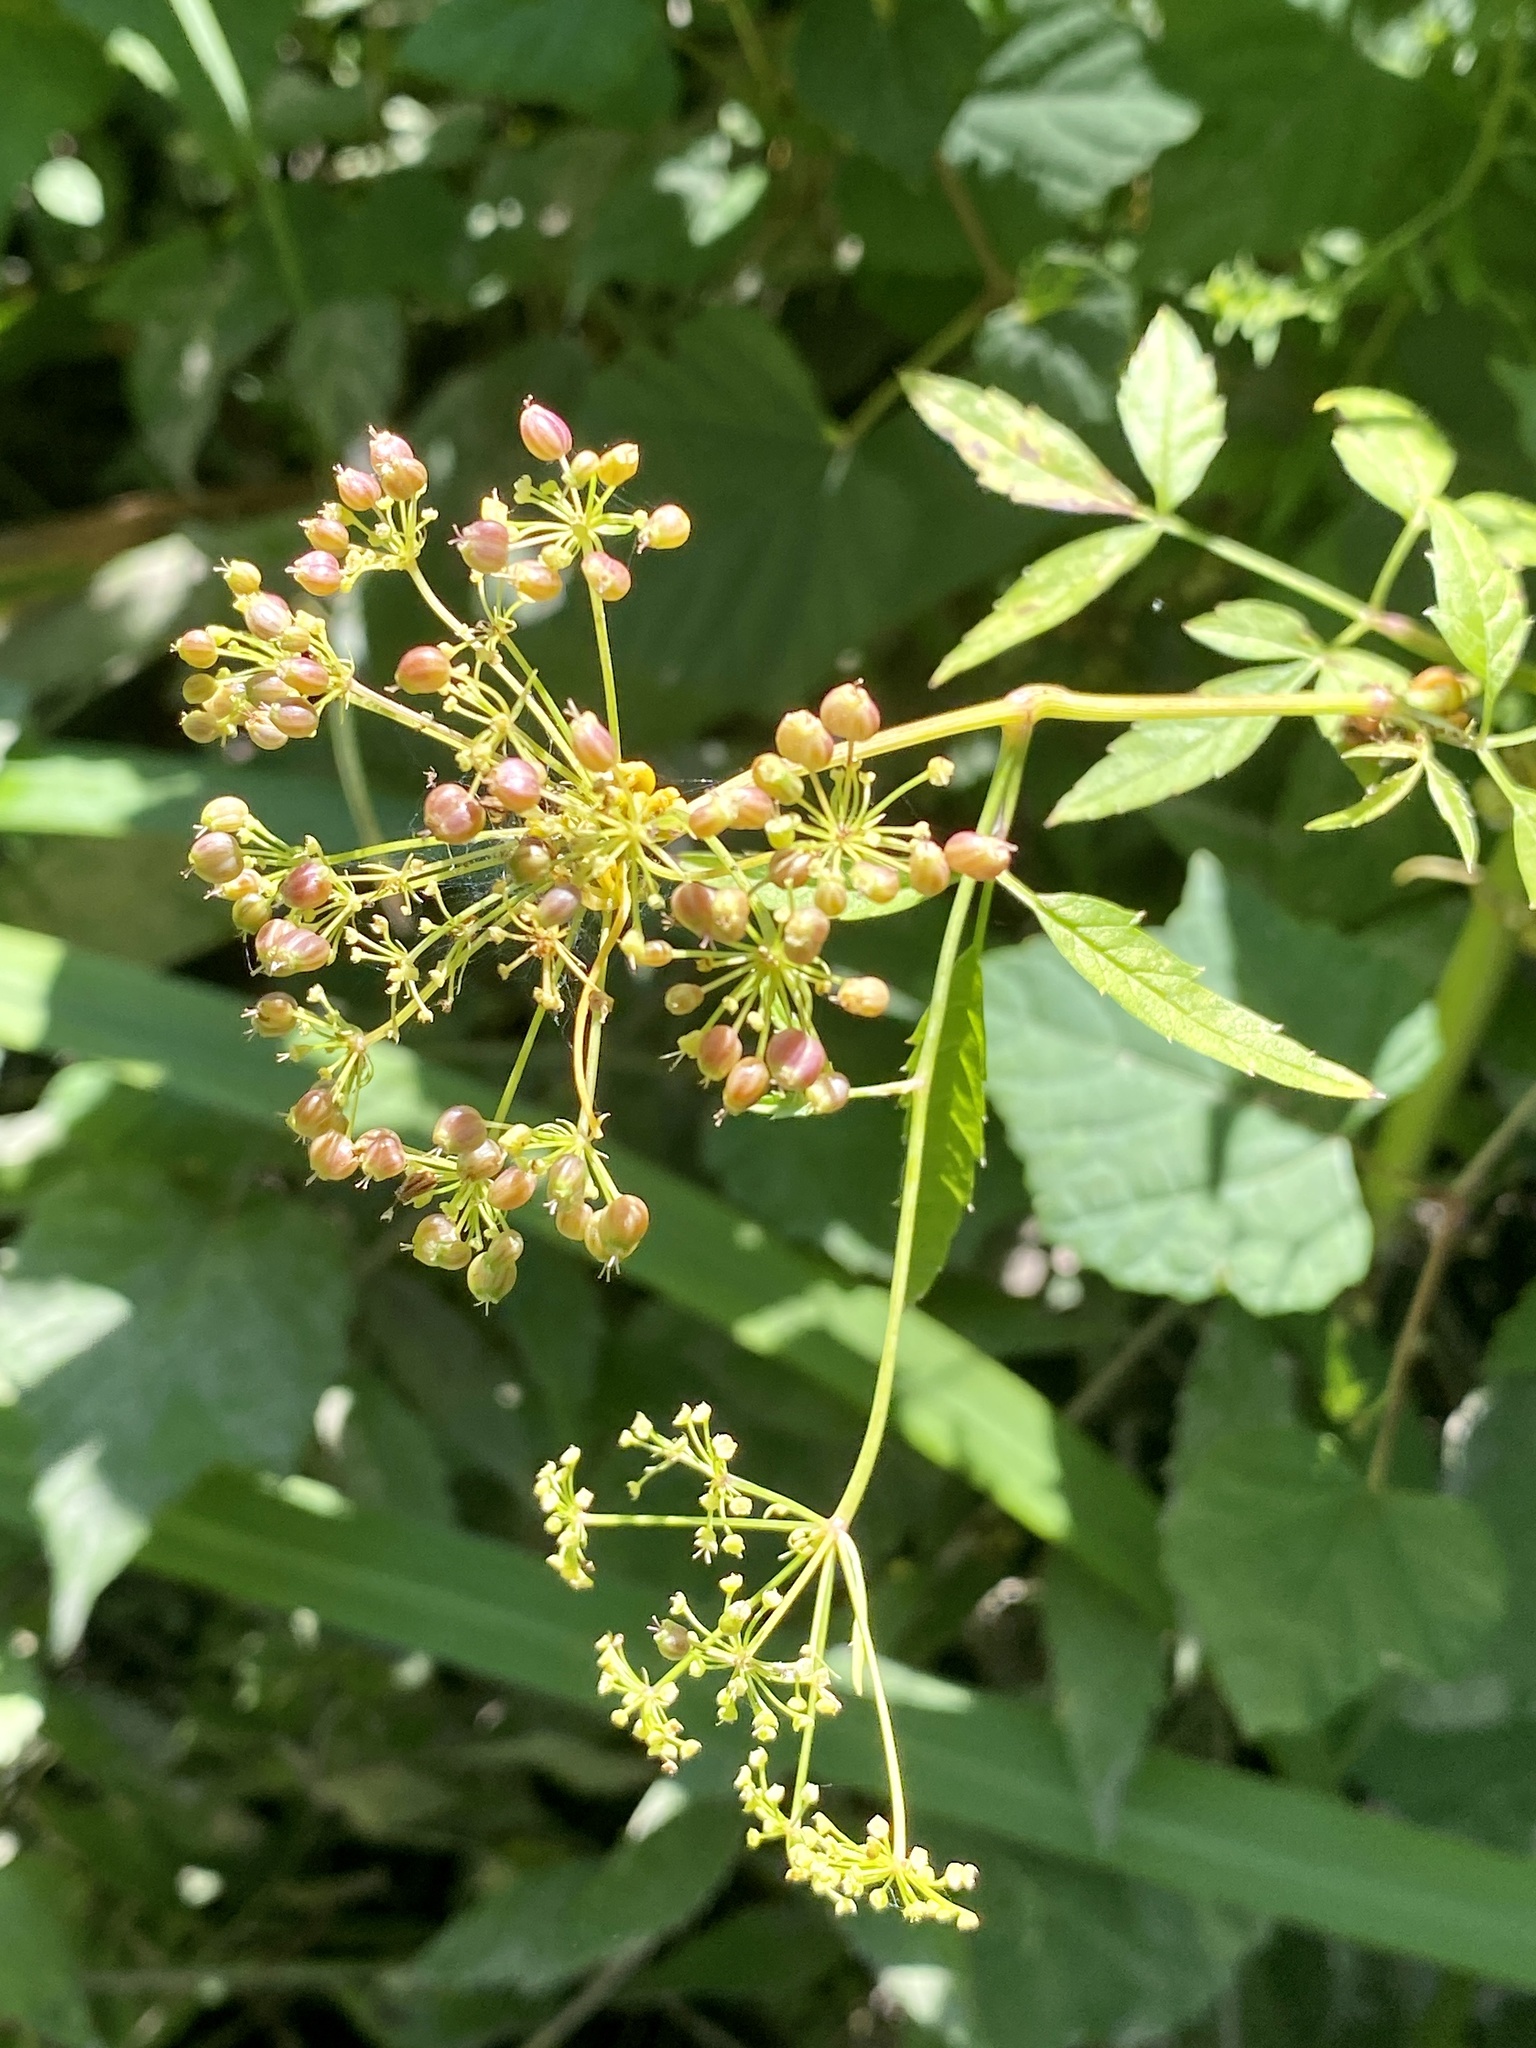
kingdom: Plantae
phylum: Tracheophyta
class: Magnoliopsida
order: Apiales
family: Apiaceae
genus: Cicuta
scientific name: Cicuta maculata
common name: Spotted cowbane
